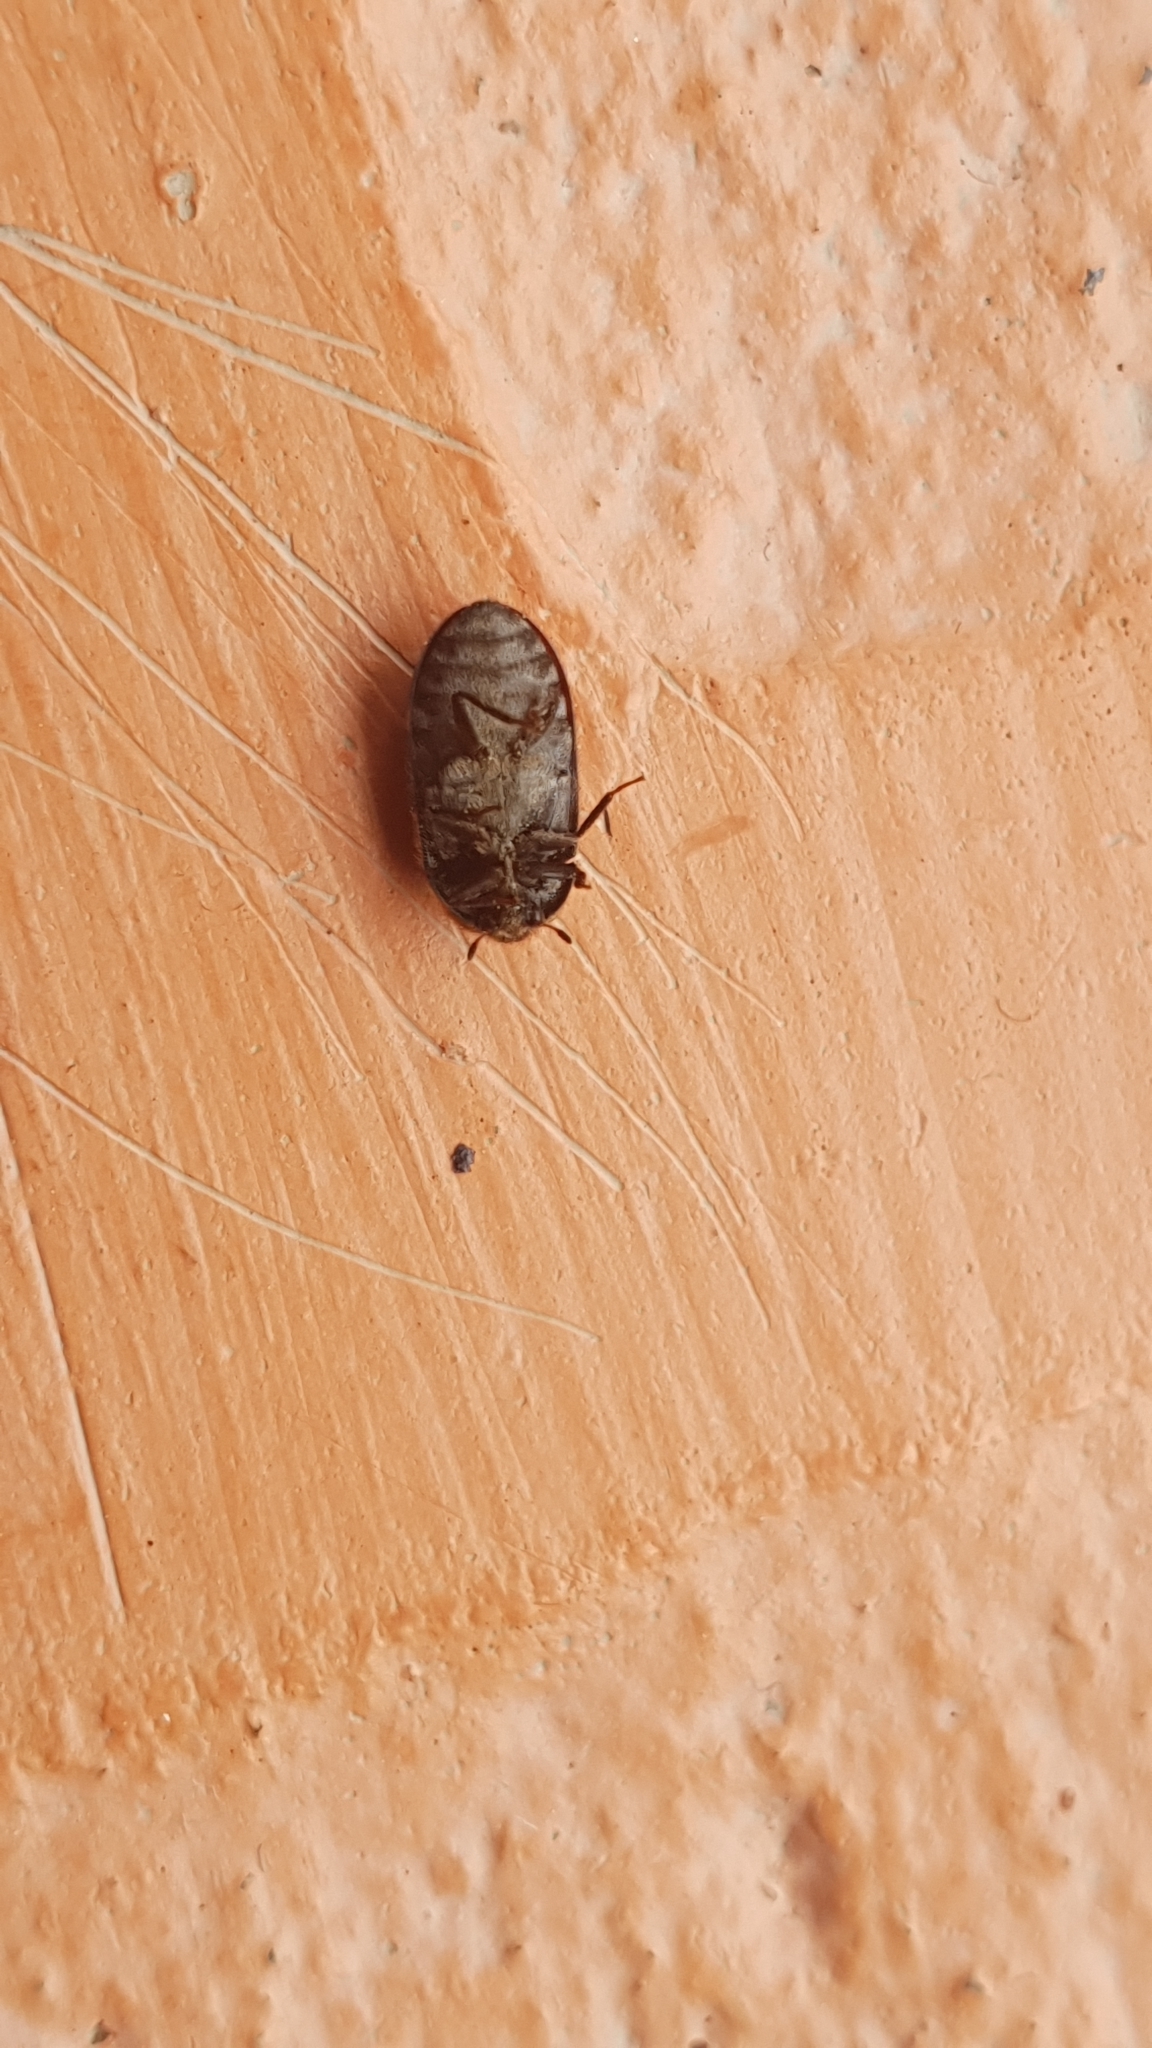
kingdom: Animalia
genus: Paranovelsis
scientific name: Paranovelsis
